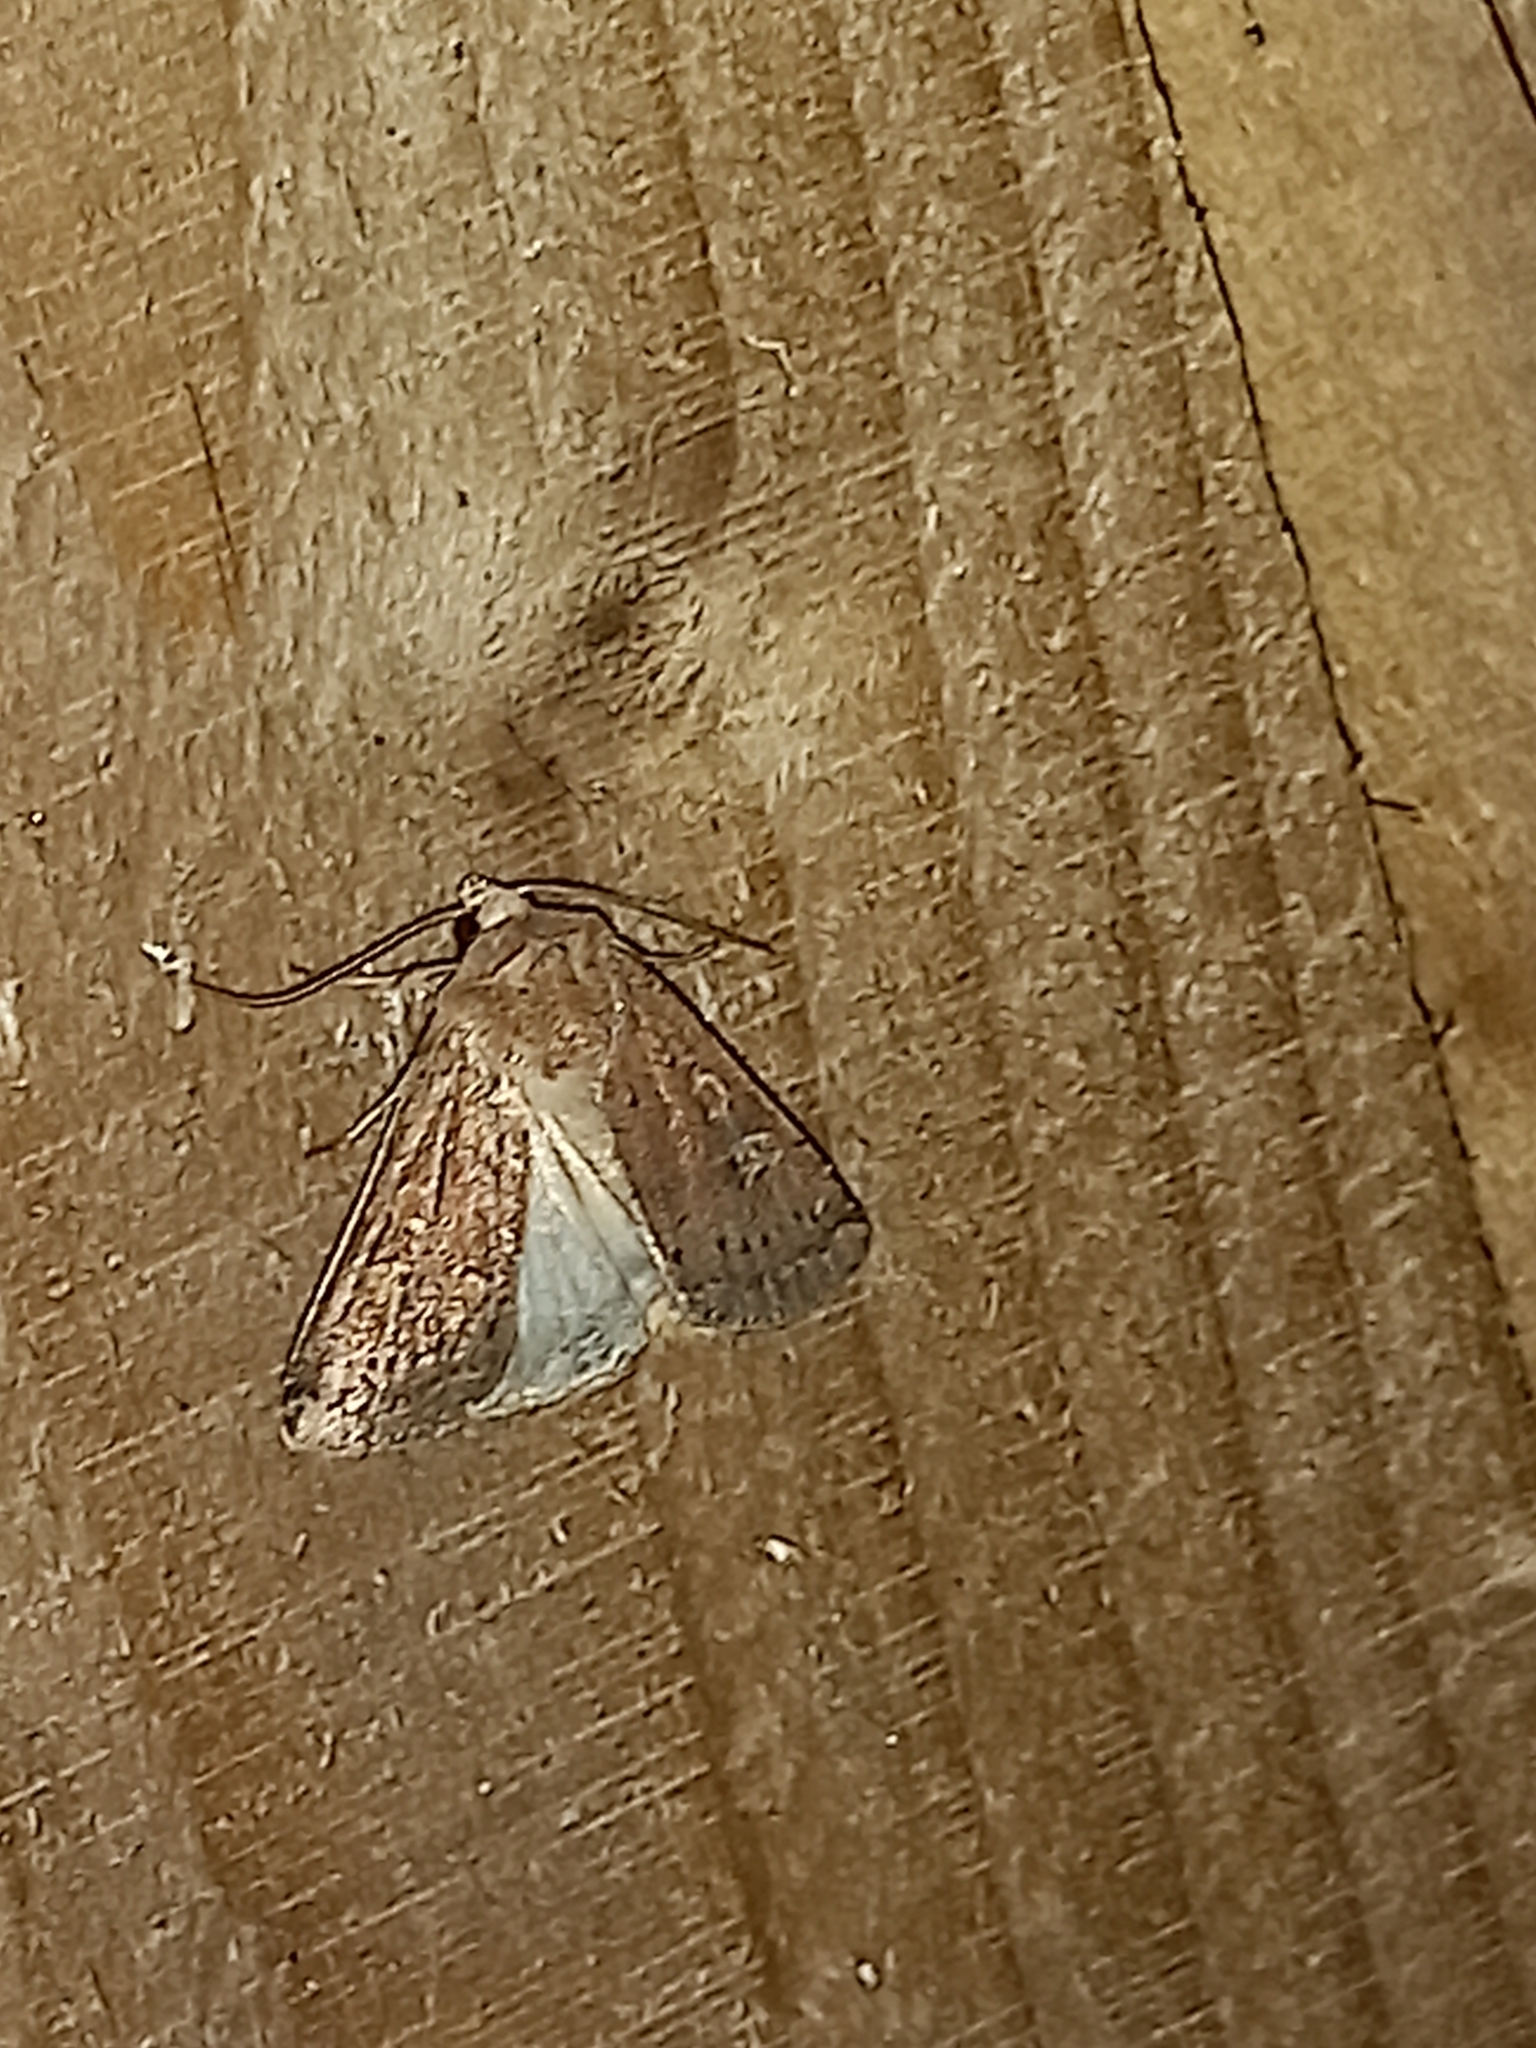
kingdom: Animalia
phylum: Arthropoda
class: Insecta
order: Lepidoptera
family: Noctuidae
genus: Xestia
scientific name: Xestia xanthographa
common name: Square-spot rustic
